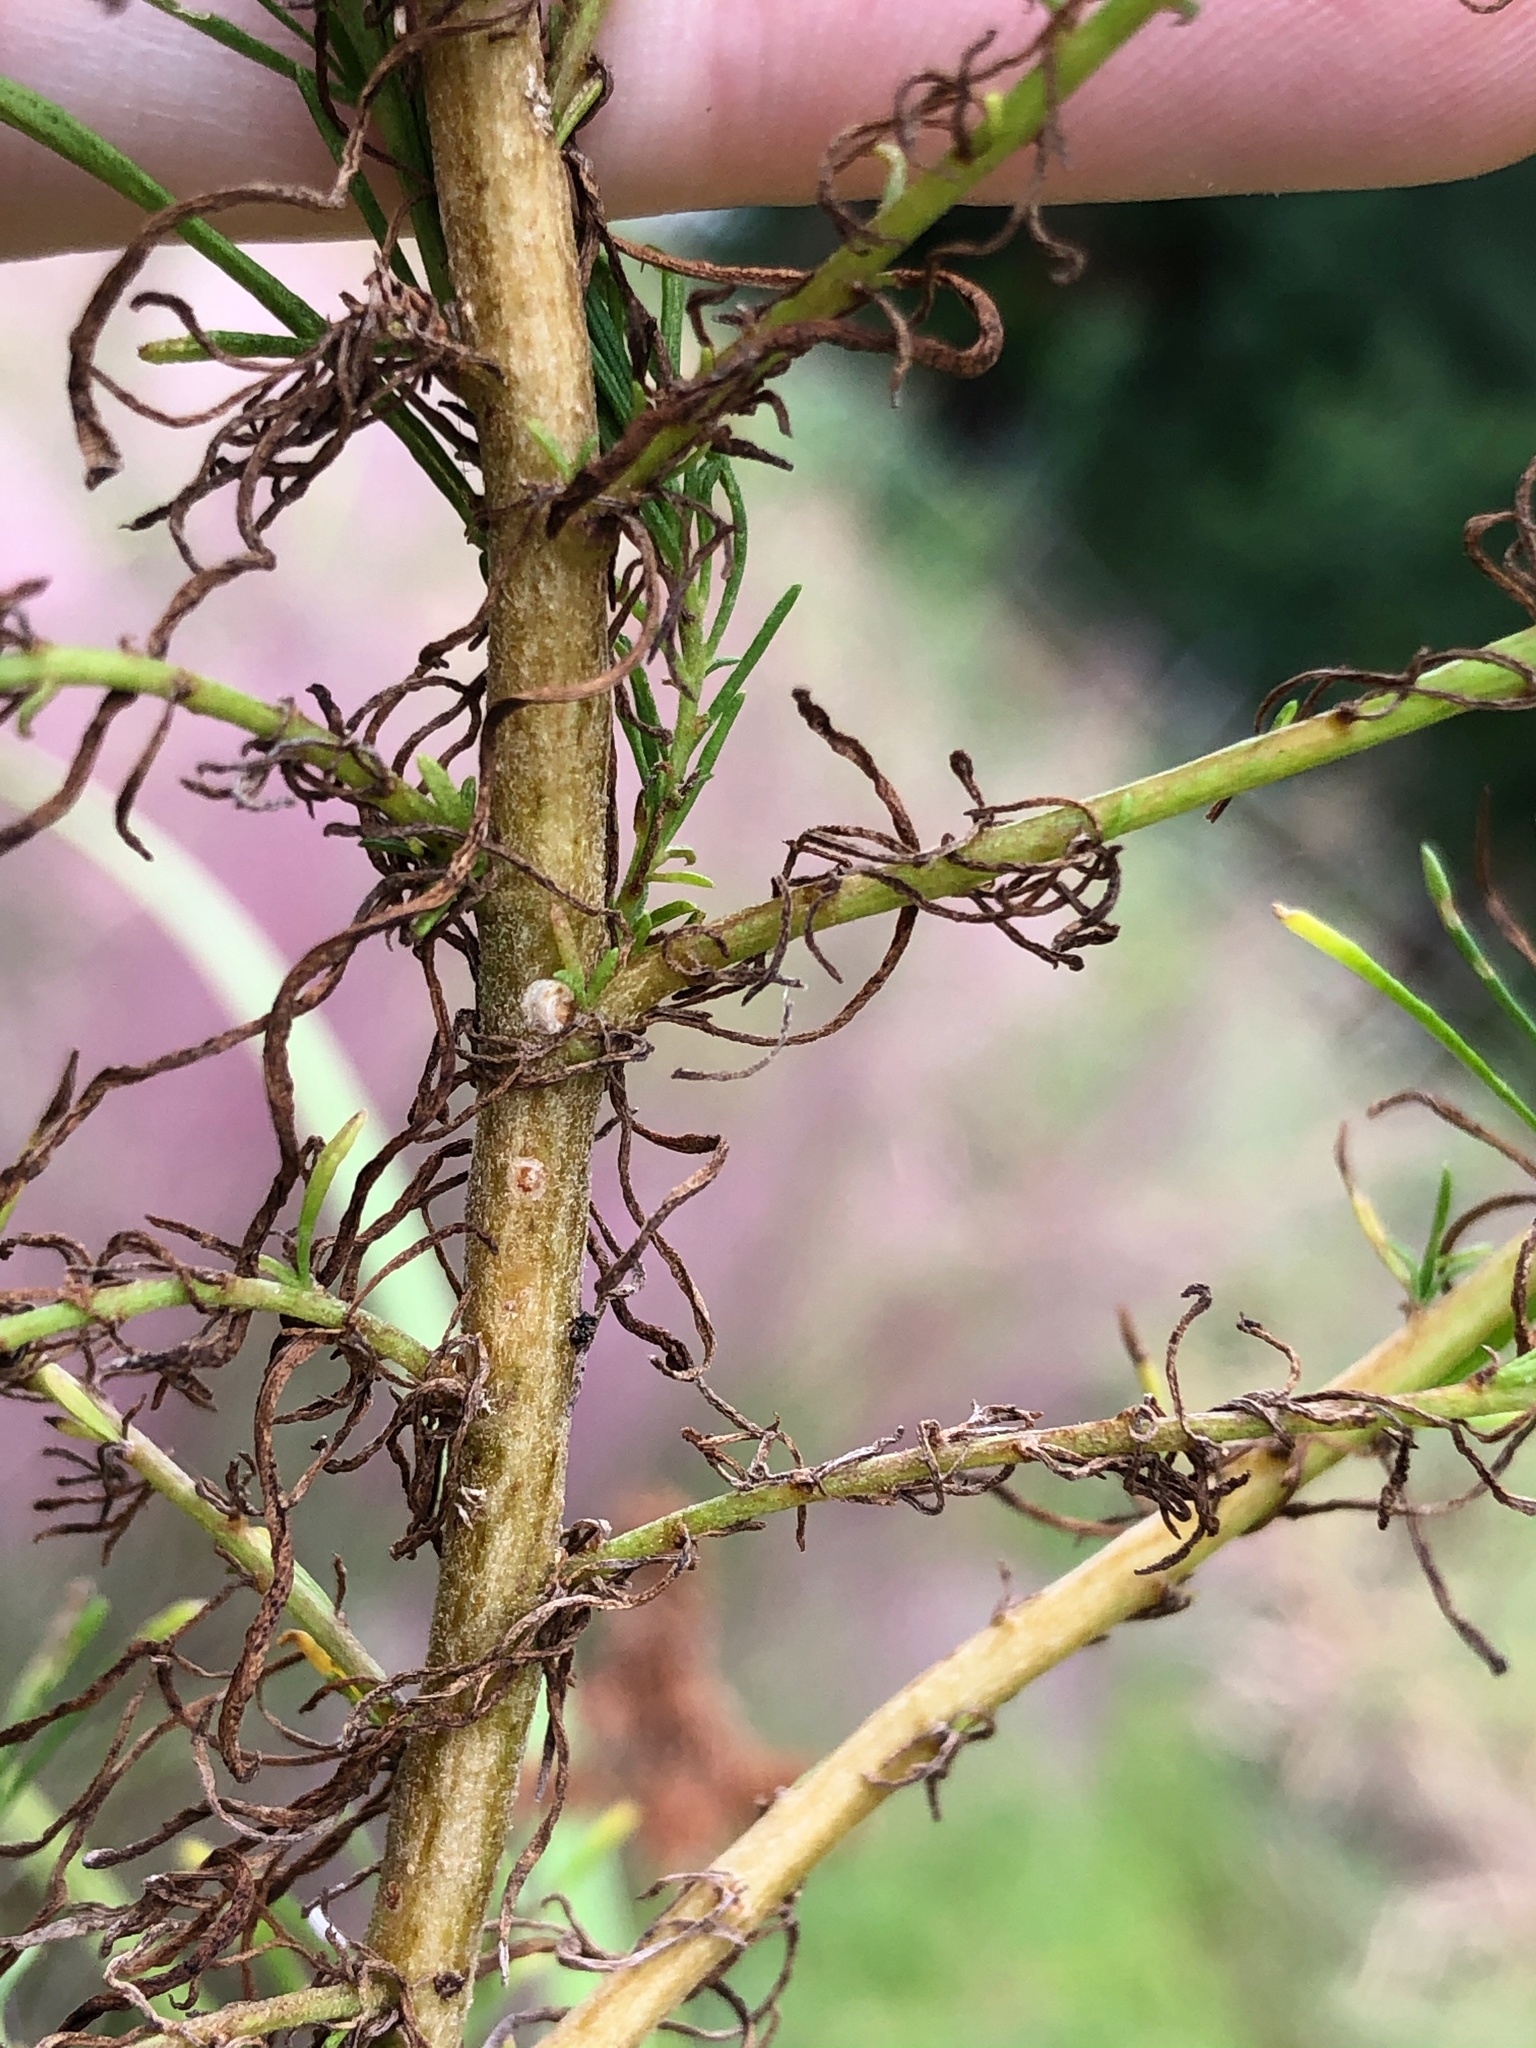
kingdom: Plantae
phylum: Tracheophyta
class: Magnoliopsida
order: Asterales
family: Asteraceae
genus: Eupatorium
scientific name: Eupatorium capillifolium
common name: Dog-fennel
